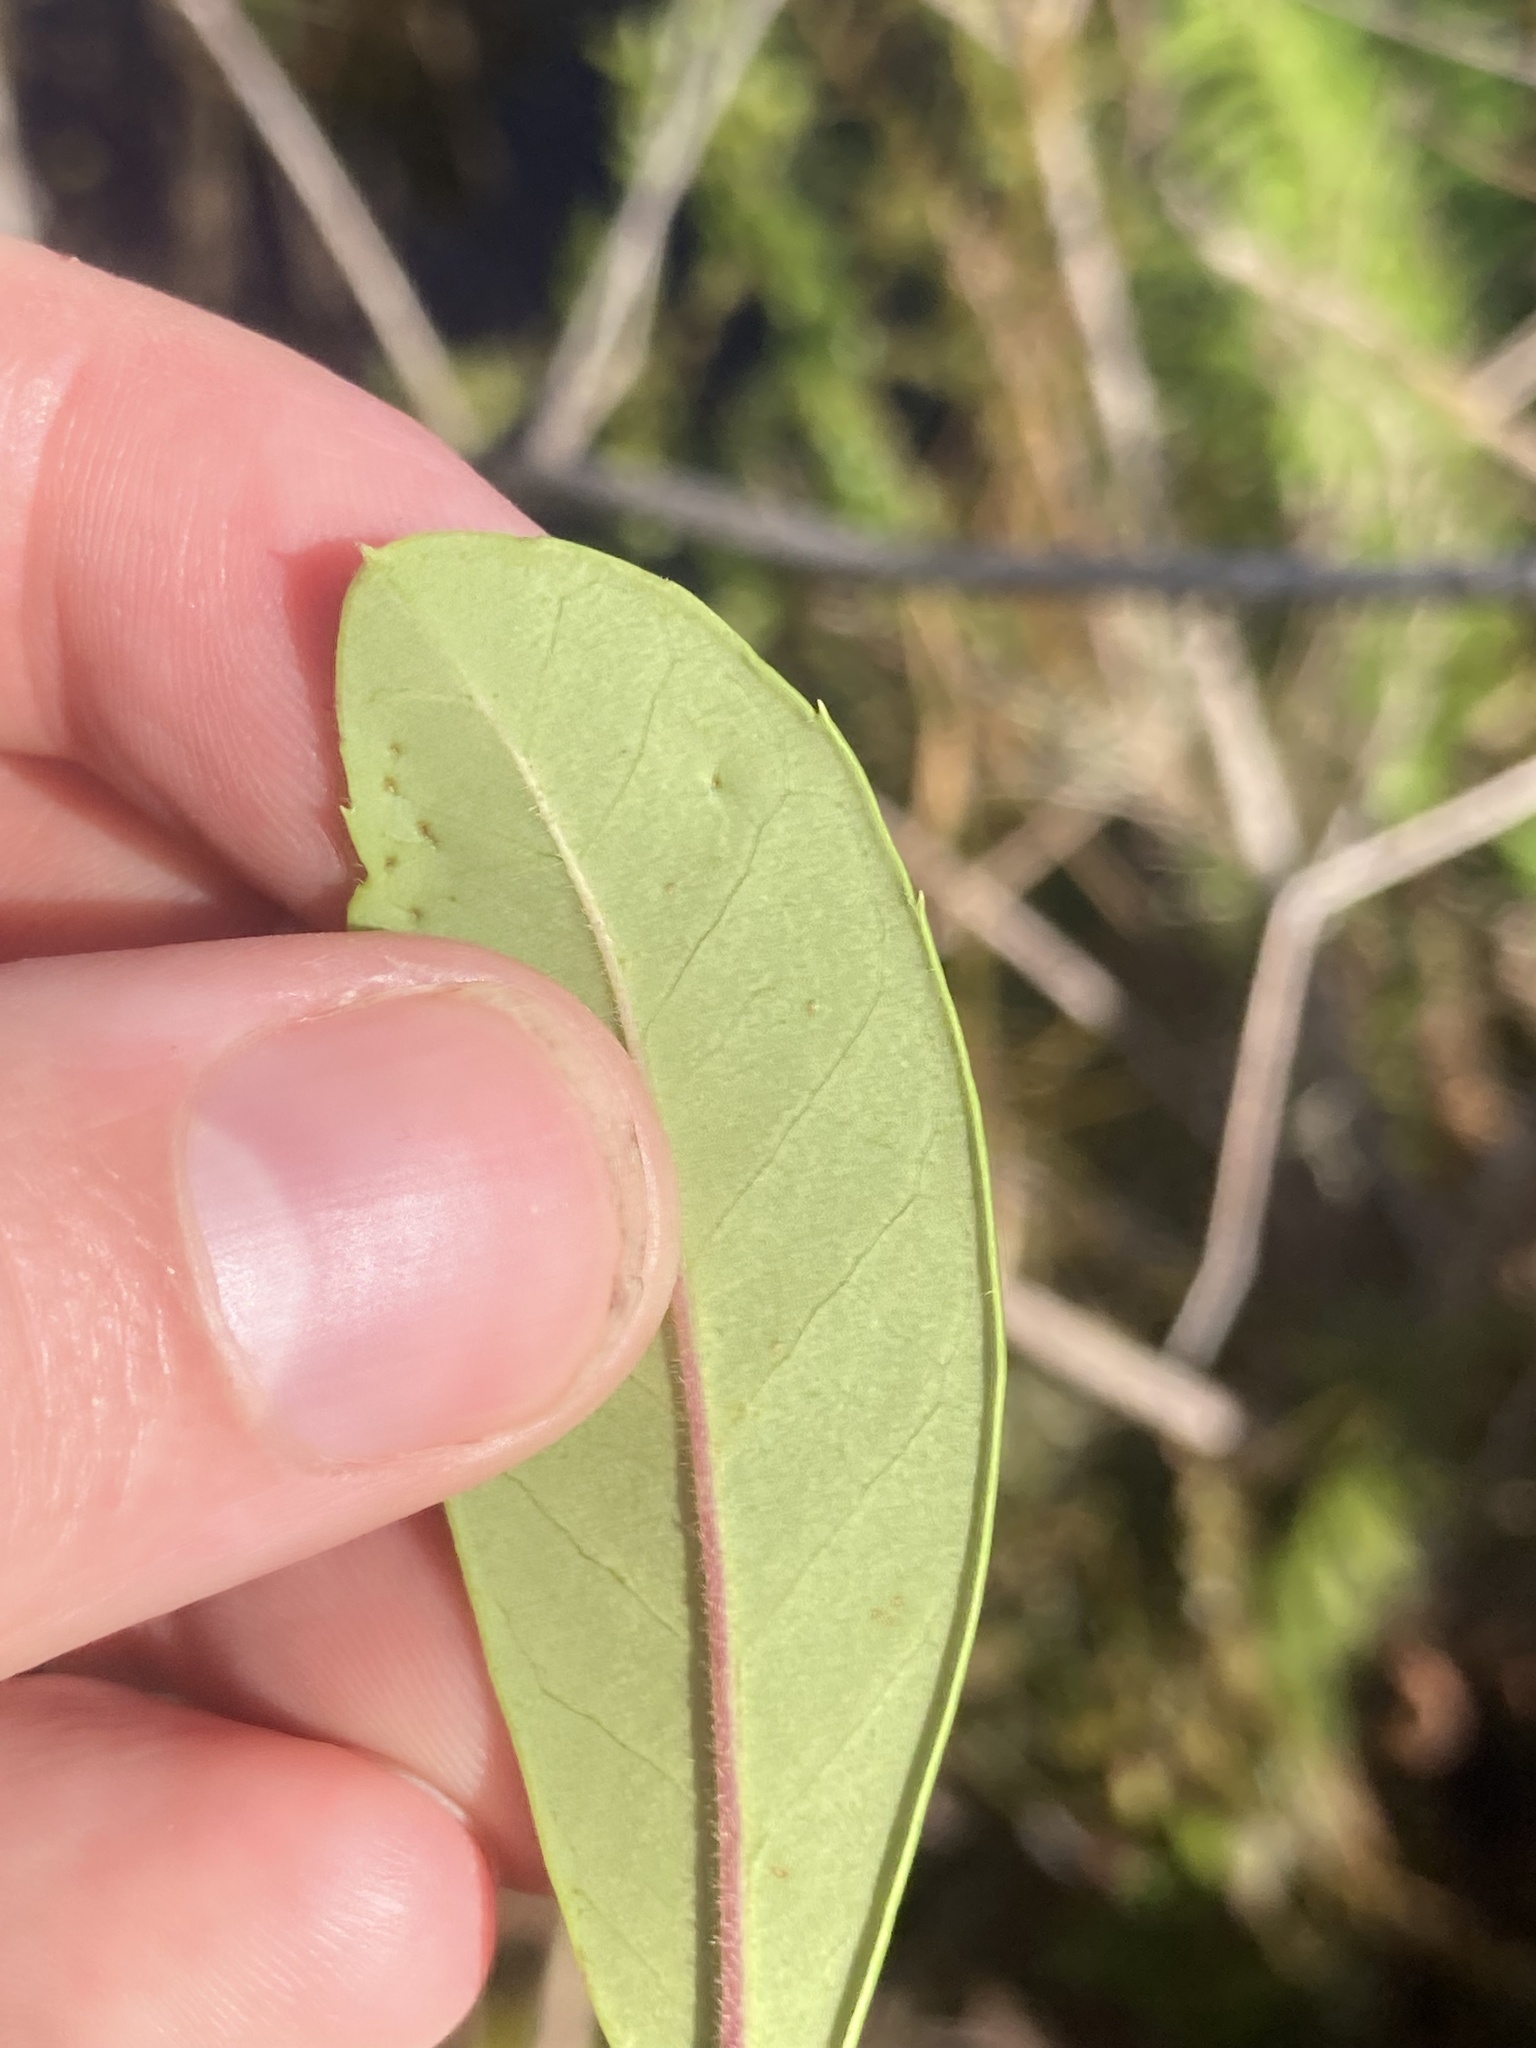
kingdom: Plantae
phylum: Tracheophyta
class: Magnoliopsida
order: Aquifoliales
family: Aquifoliaceae
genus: Ilex
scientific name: Ilex cassine
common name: Dahoon
